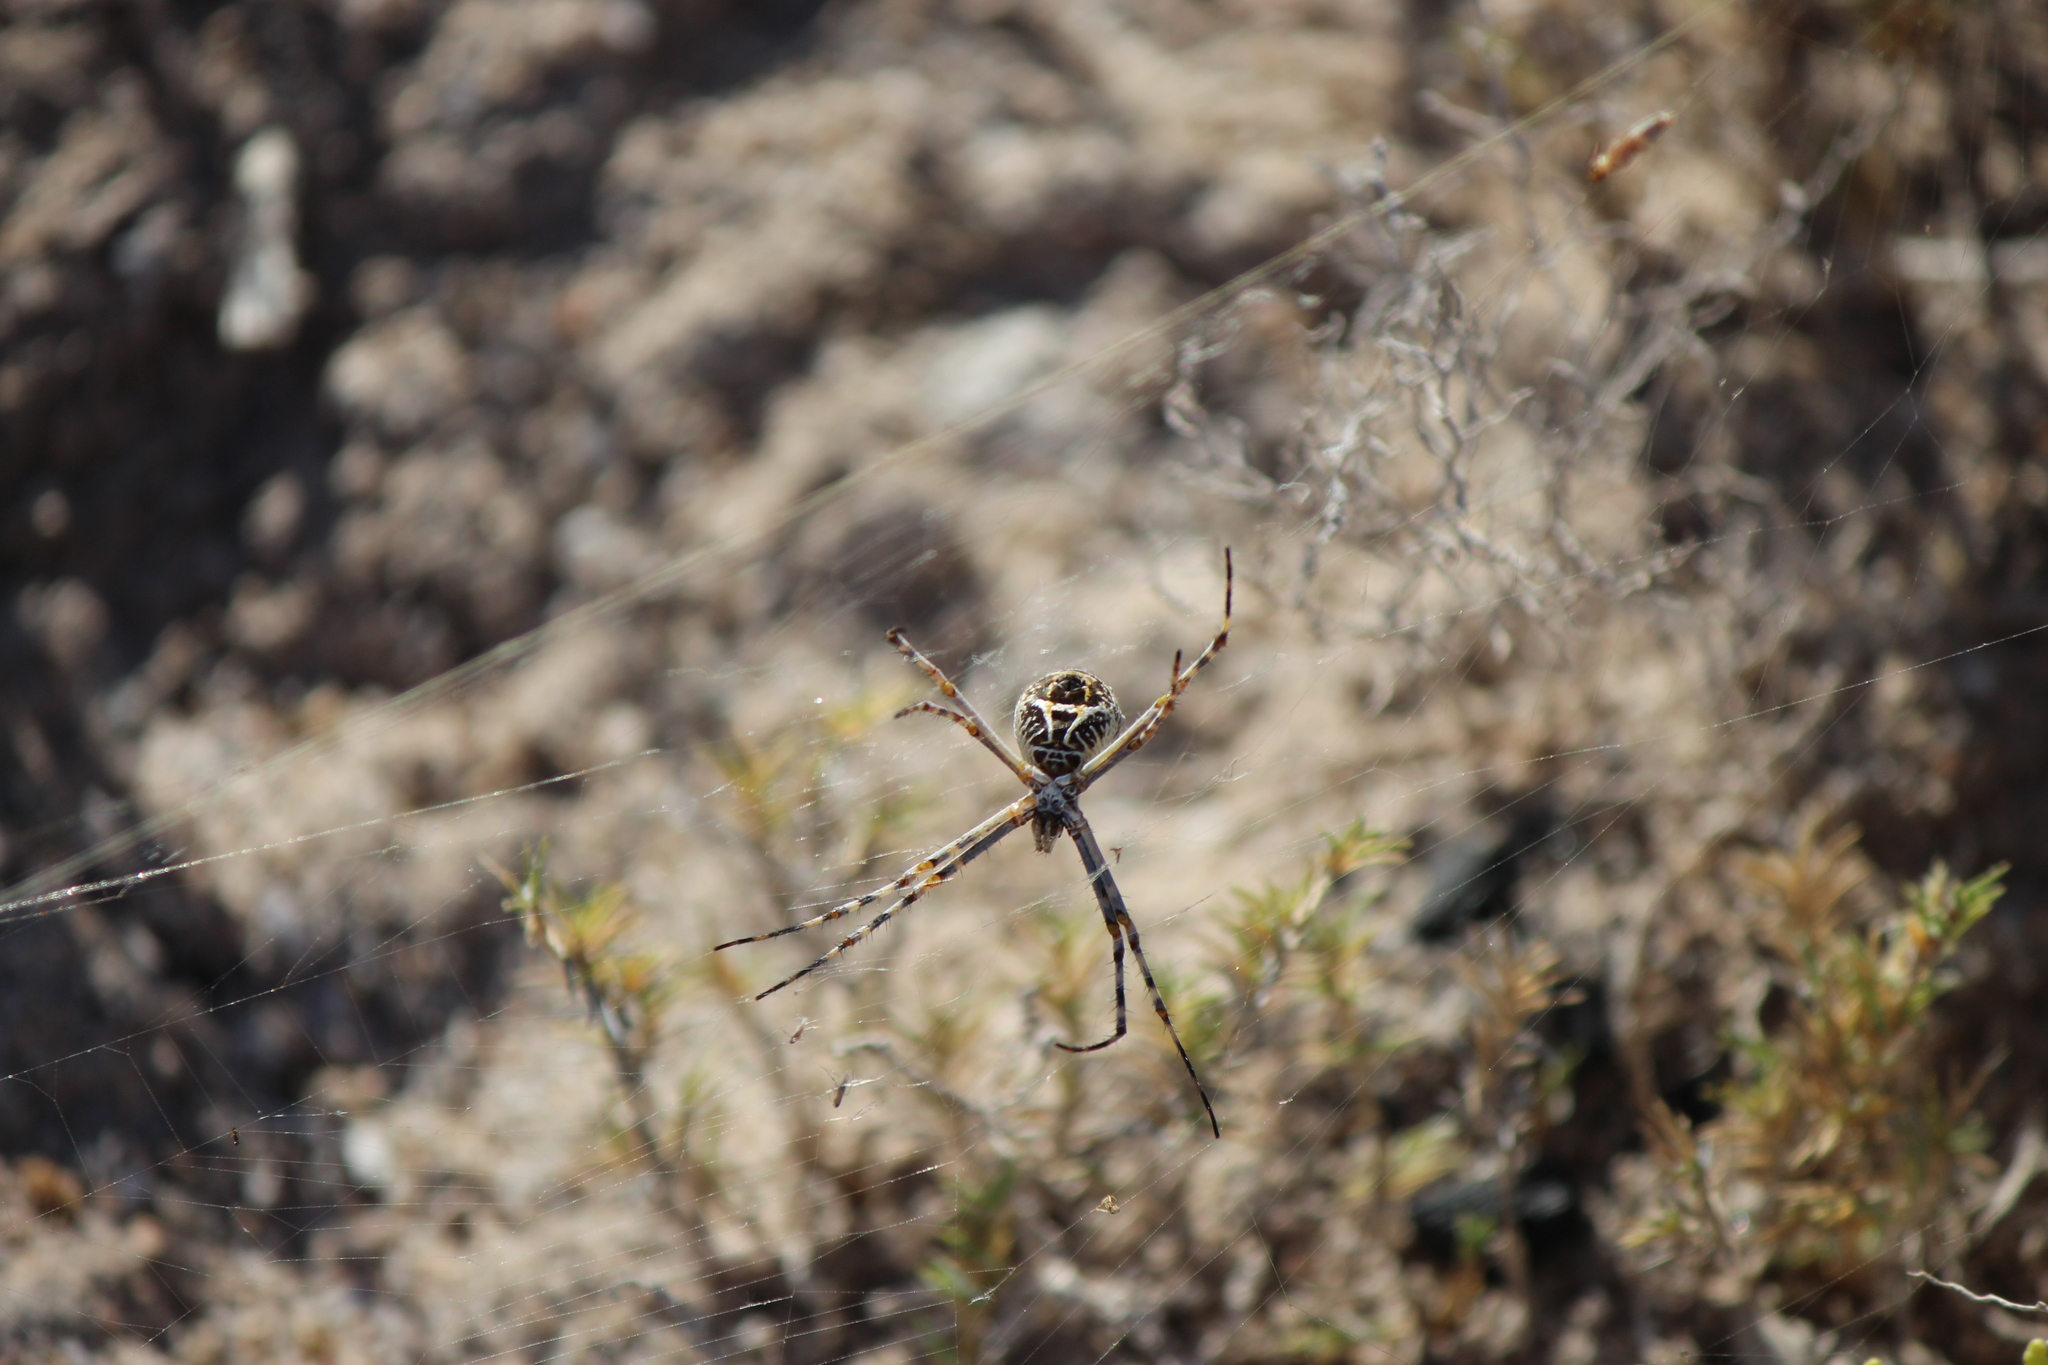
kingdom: Animalia
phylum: Arthropoda
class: Arachnida
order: Araneae
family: Araneidae
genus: Argiope
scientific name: Argiope argentata
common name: Orb weavers
